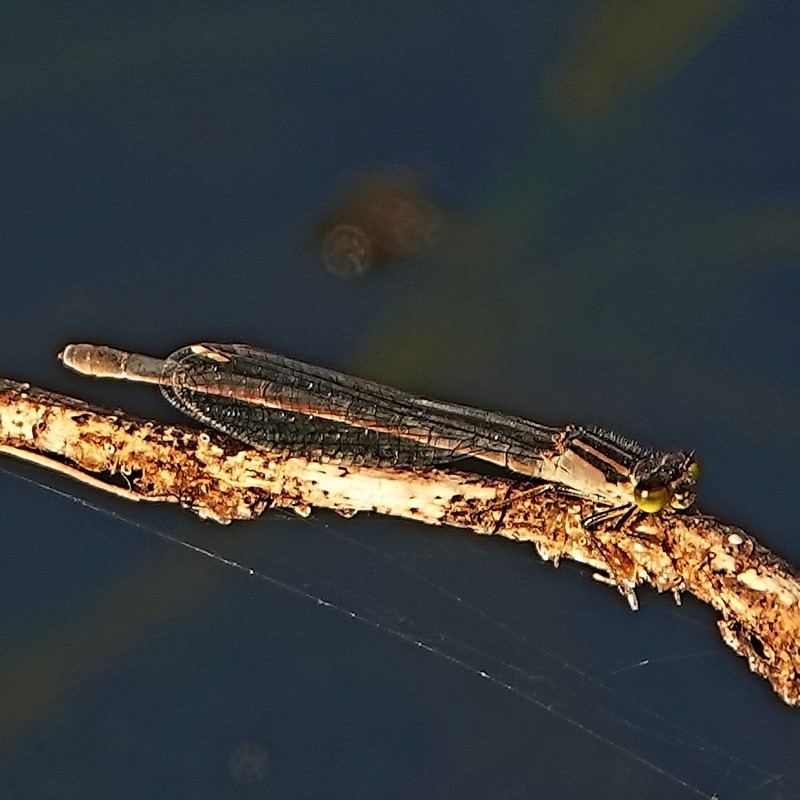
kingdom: Animalia
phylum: Arthropoda
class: Insecta
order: Odonata
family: Coenagrionidae
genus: Ischnura
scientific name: Ischnura heterosticta
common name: Common bluetail
